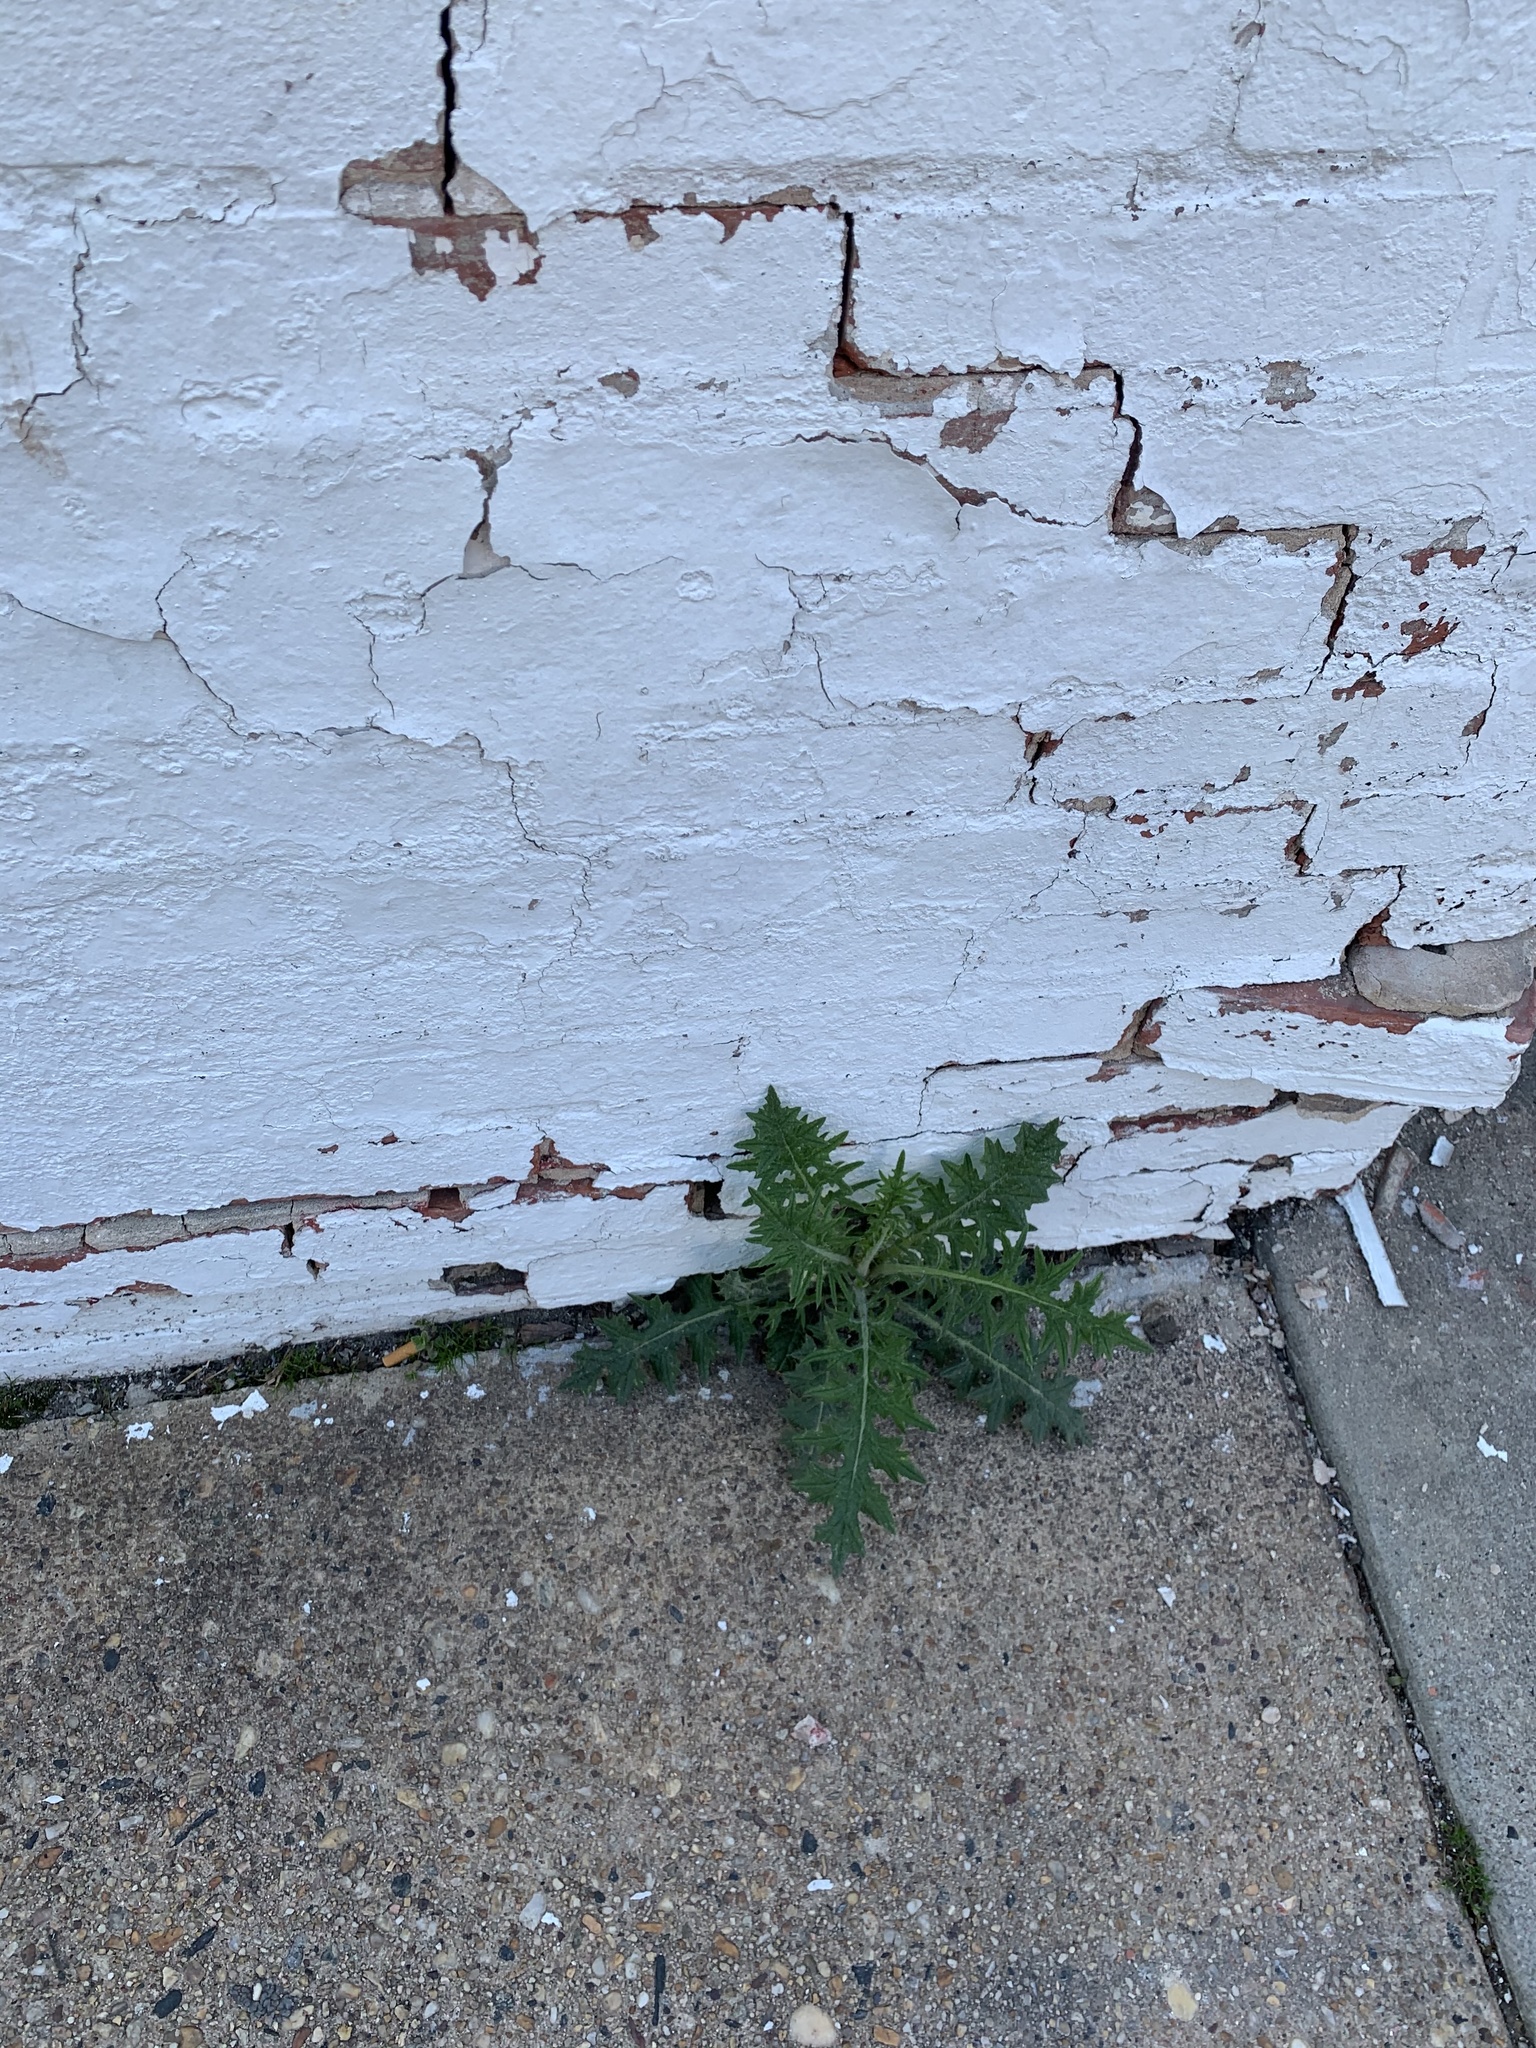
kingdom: Plantae
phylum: Tracheophyta
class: Magnoliopsida
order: Asterales
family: Asteraceae
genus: Cirsium
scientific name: Cirsium vulgare
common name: Bull thistle
